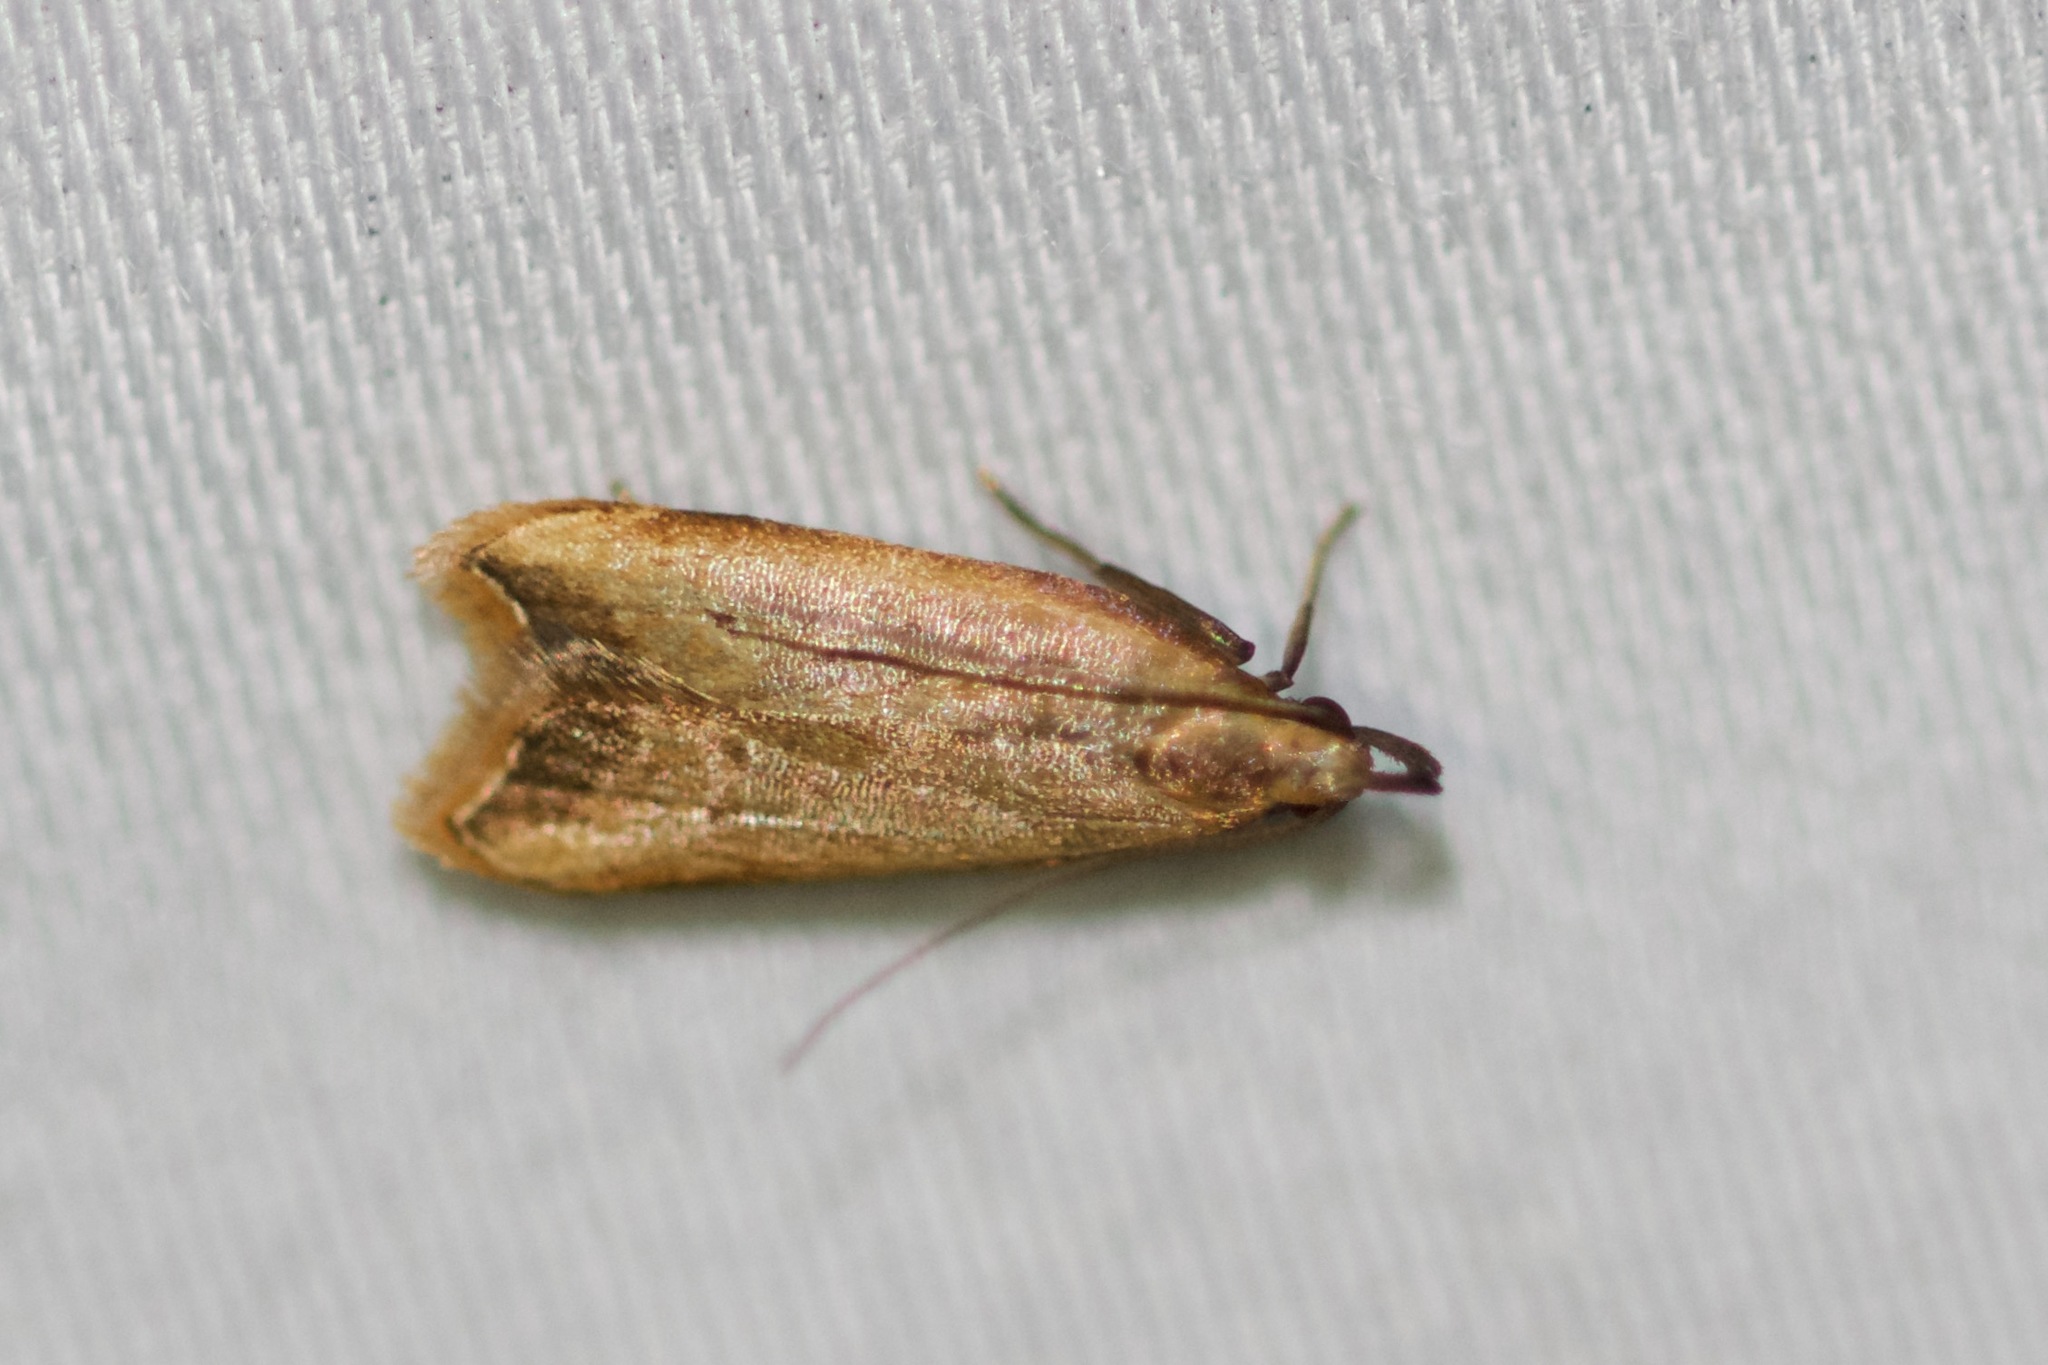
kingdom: Animalia
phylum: Arthropoda
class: Insecta
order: Lepidoptera
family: Gelechiidae
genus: Dichomeris
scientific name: Dichomeris heriguronis
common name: Black-edged dichomeris moth
